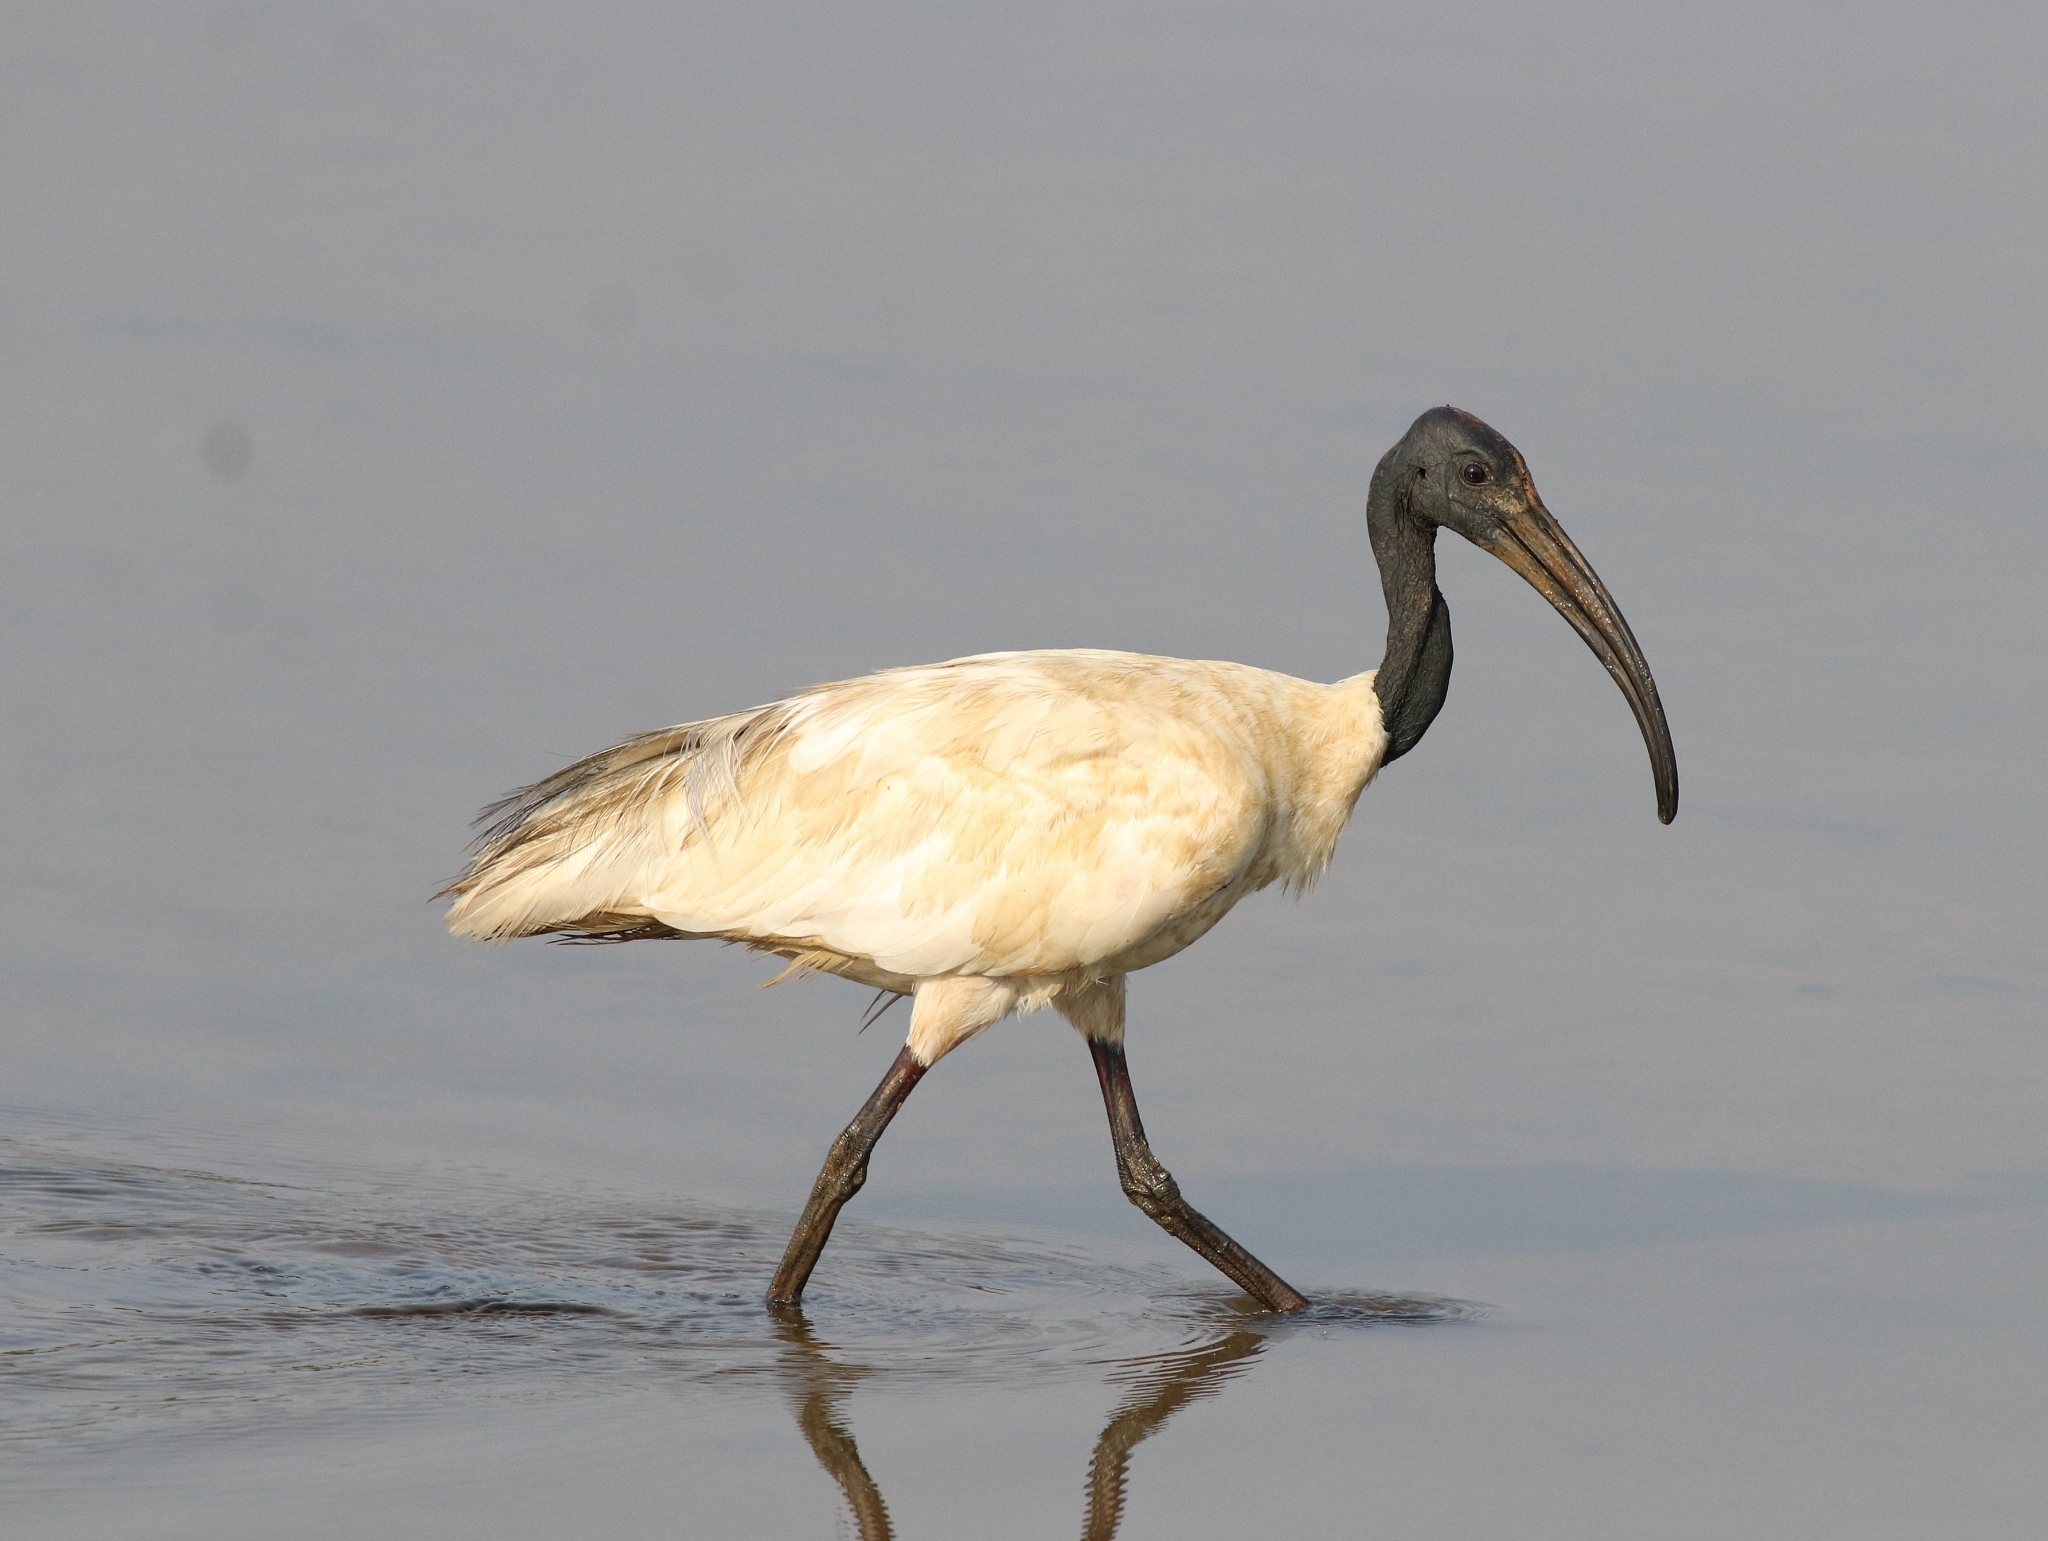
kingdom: Animalia
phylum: Chordata
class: Aves
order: Pelecaniformes
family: Threskiornithidae
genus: Threskiornis
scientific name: Threskiornis melanocephalus
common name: Black-headed ibis
